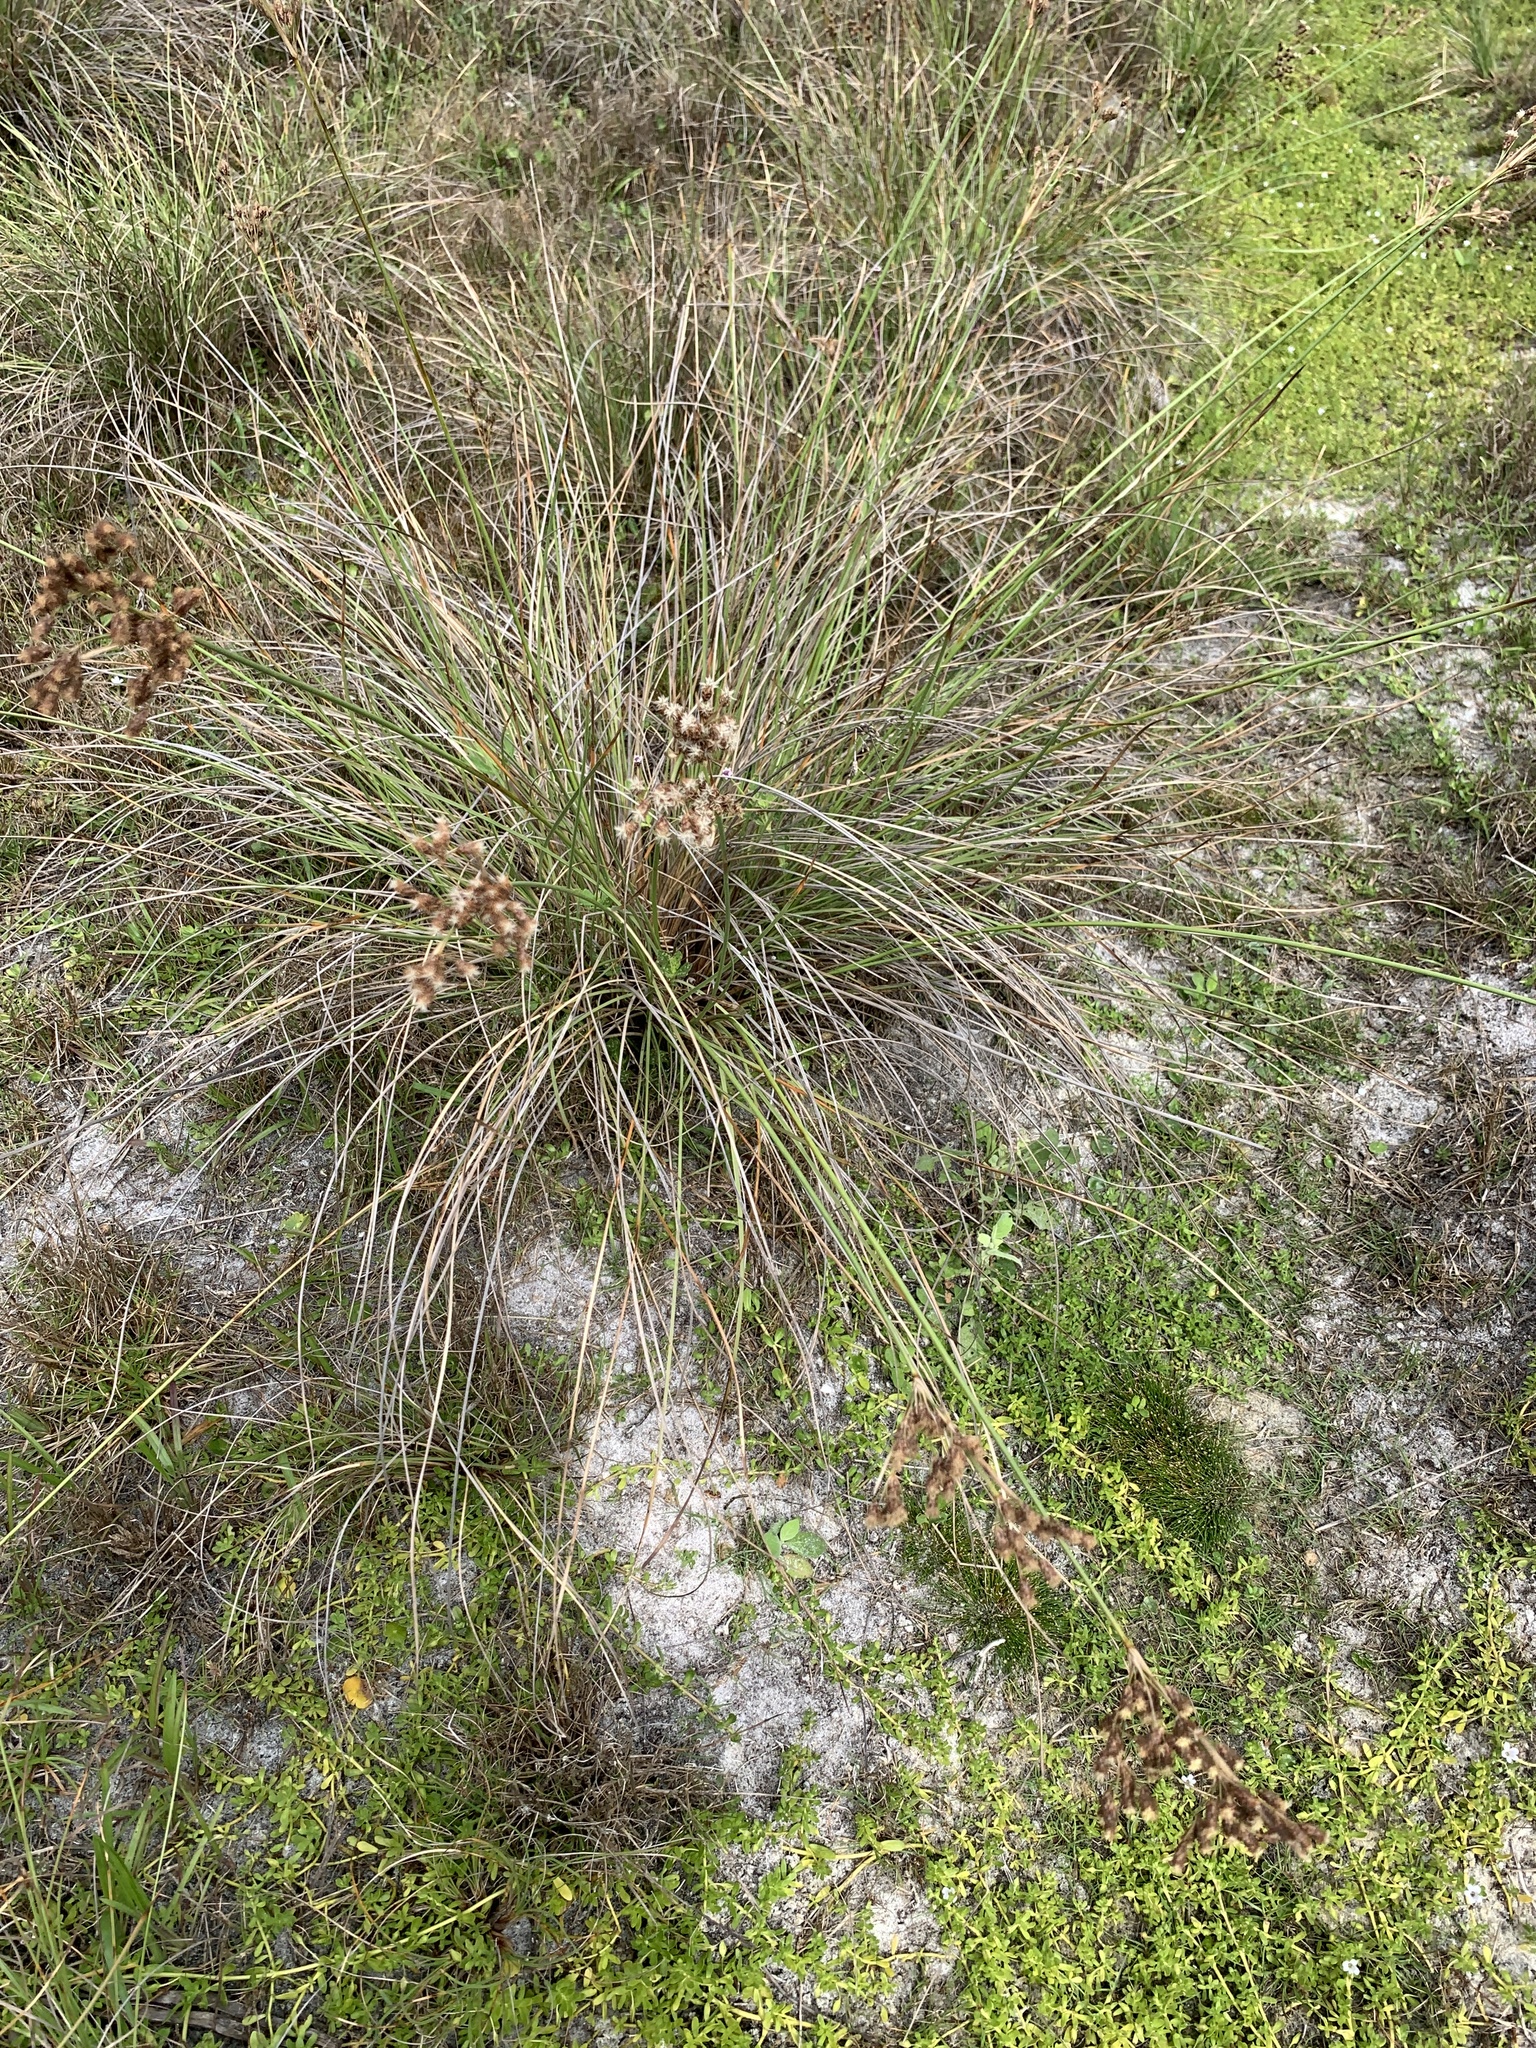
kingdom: Plantae
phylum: Tracheophyta
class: Liliopsida
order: Poales
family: Juncaceae
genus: Juncus
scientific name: Juncus megacephalus
